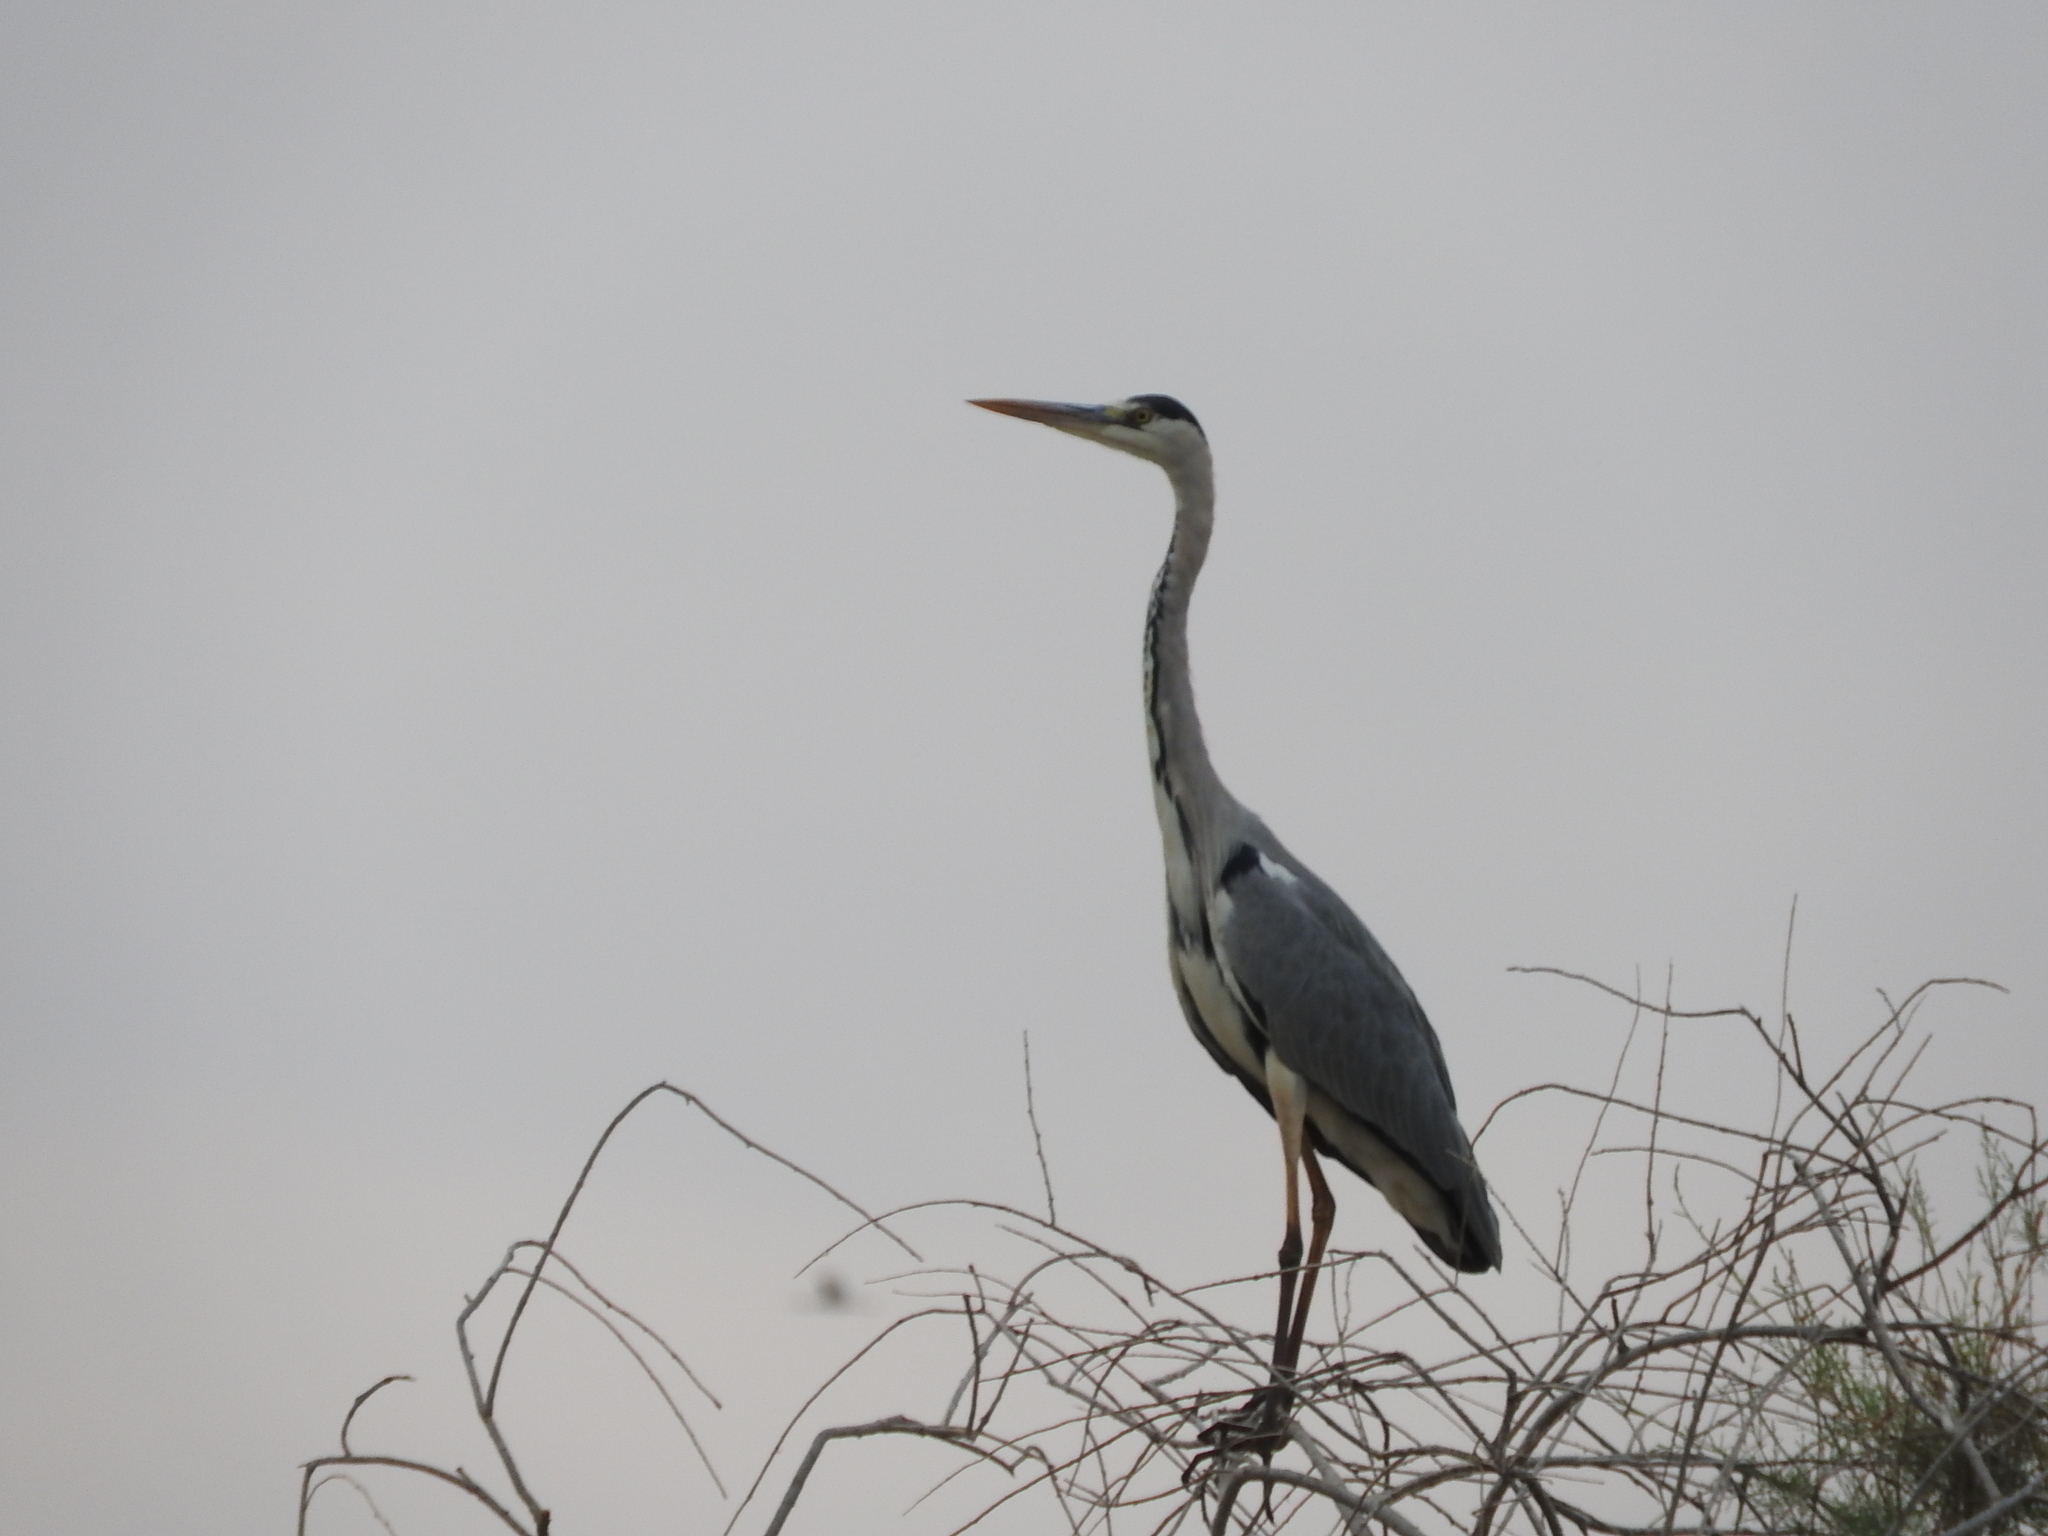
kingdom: Animalia
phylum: Chordata
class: Aves
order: Pelecaniformes
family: Ardeidae
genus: Ardea
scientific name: Ardea cinerea
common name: Grey heron
